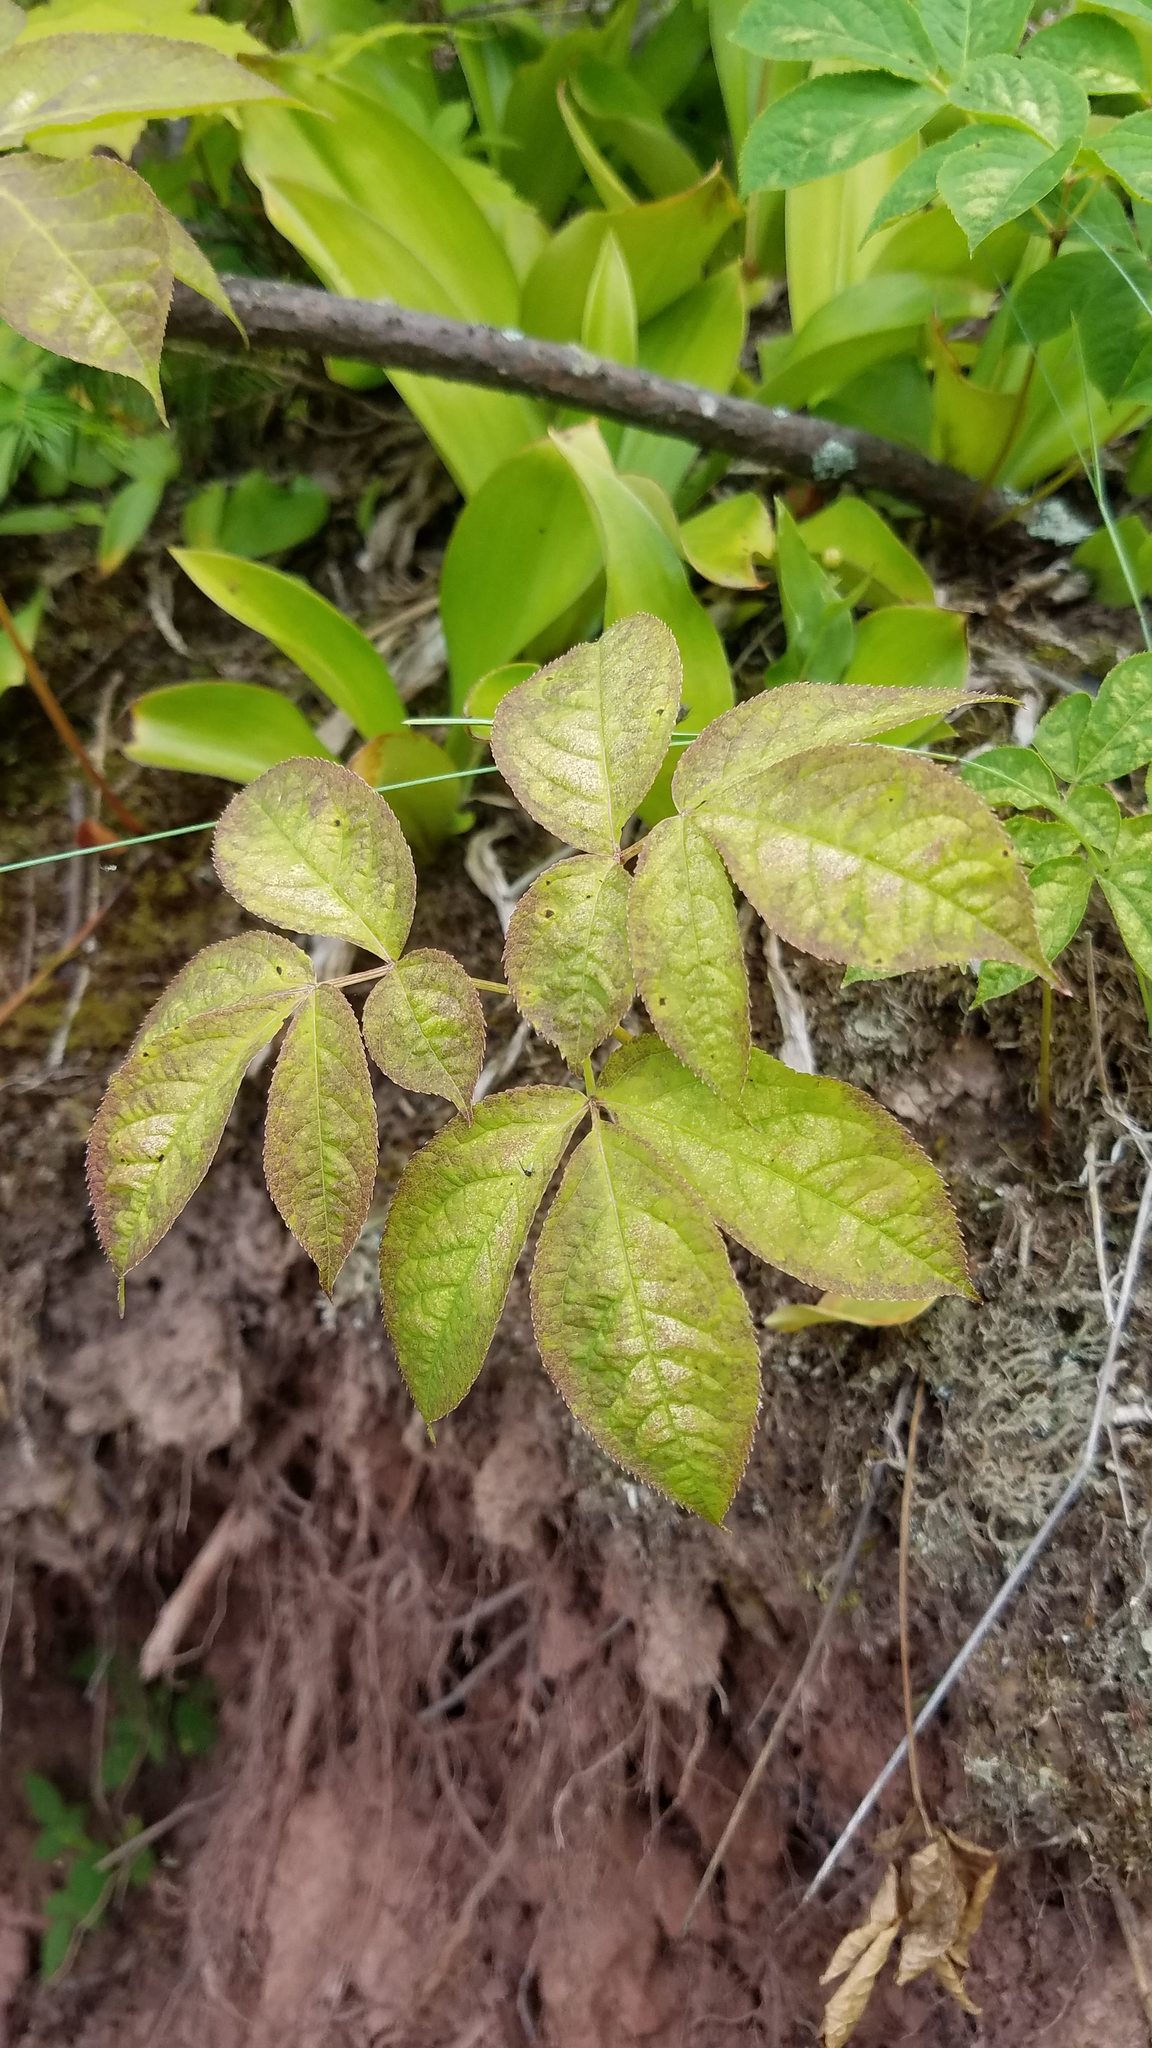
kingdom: Plantae
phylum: Tracheophyta
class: Magnoliopsida
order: Apiales
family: Araliaceae
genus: Aralia
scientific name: Aralia nudicaulis
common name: Wild sarsaparilla
